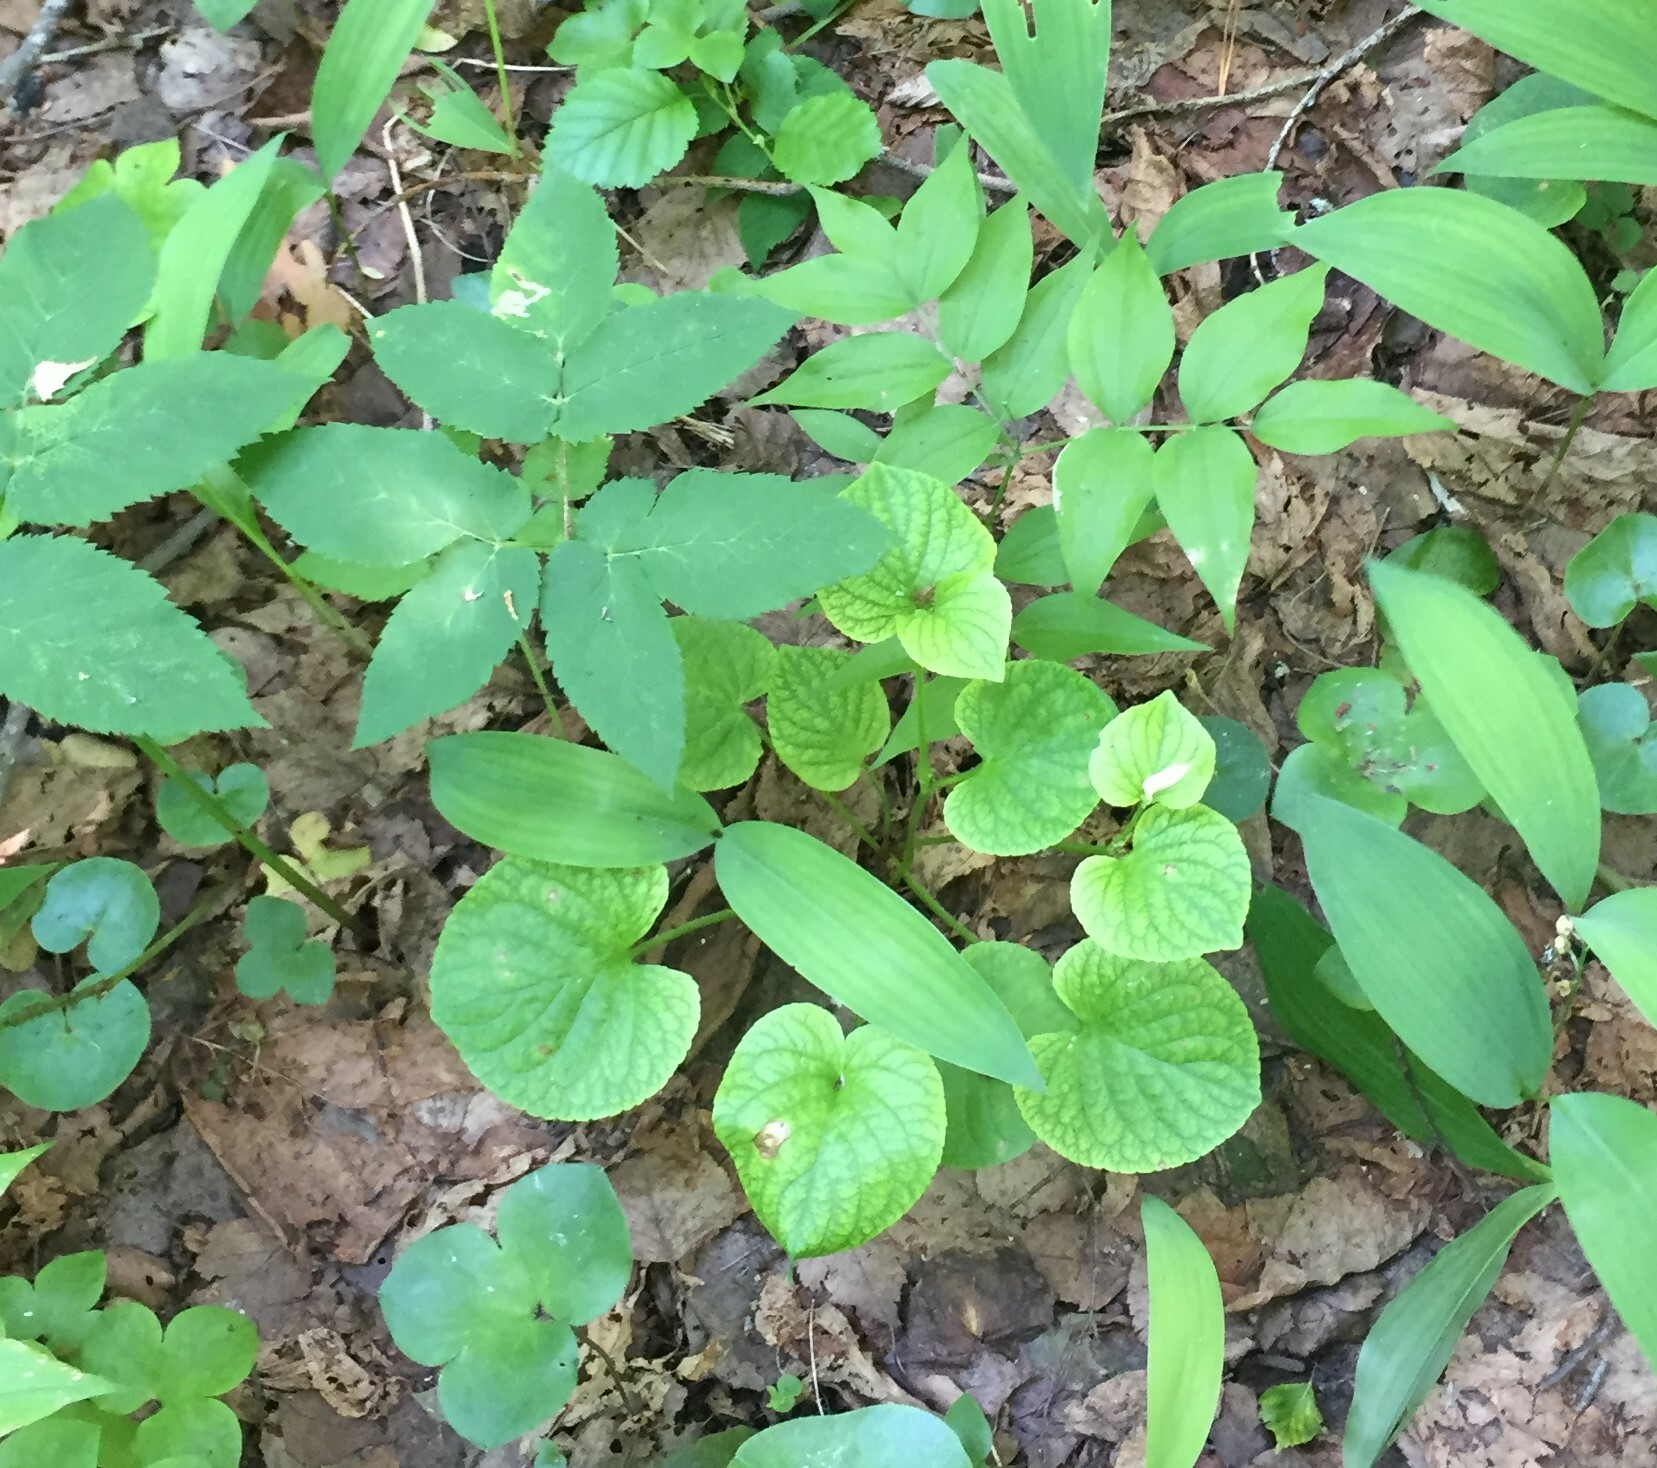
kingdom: Plantae
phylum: Tracheophyta
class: Magnoliopsida
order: Malpighiales
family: Violaceae
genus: Viola
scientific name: Viola mirabilis
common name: Wonder violet
